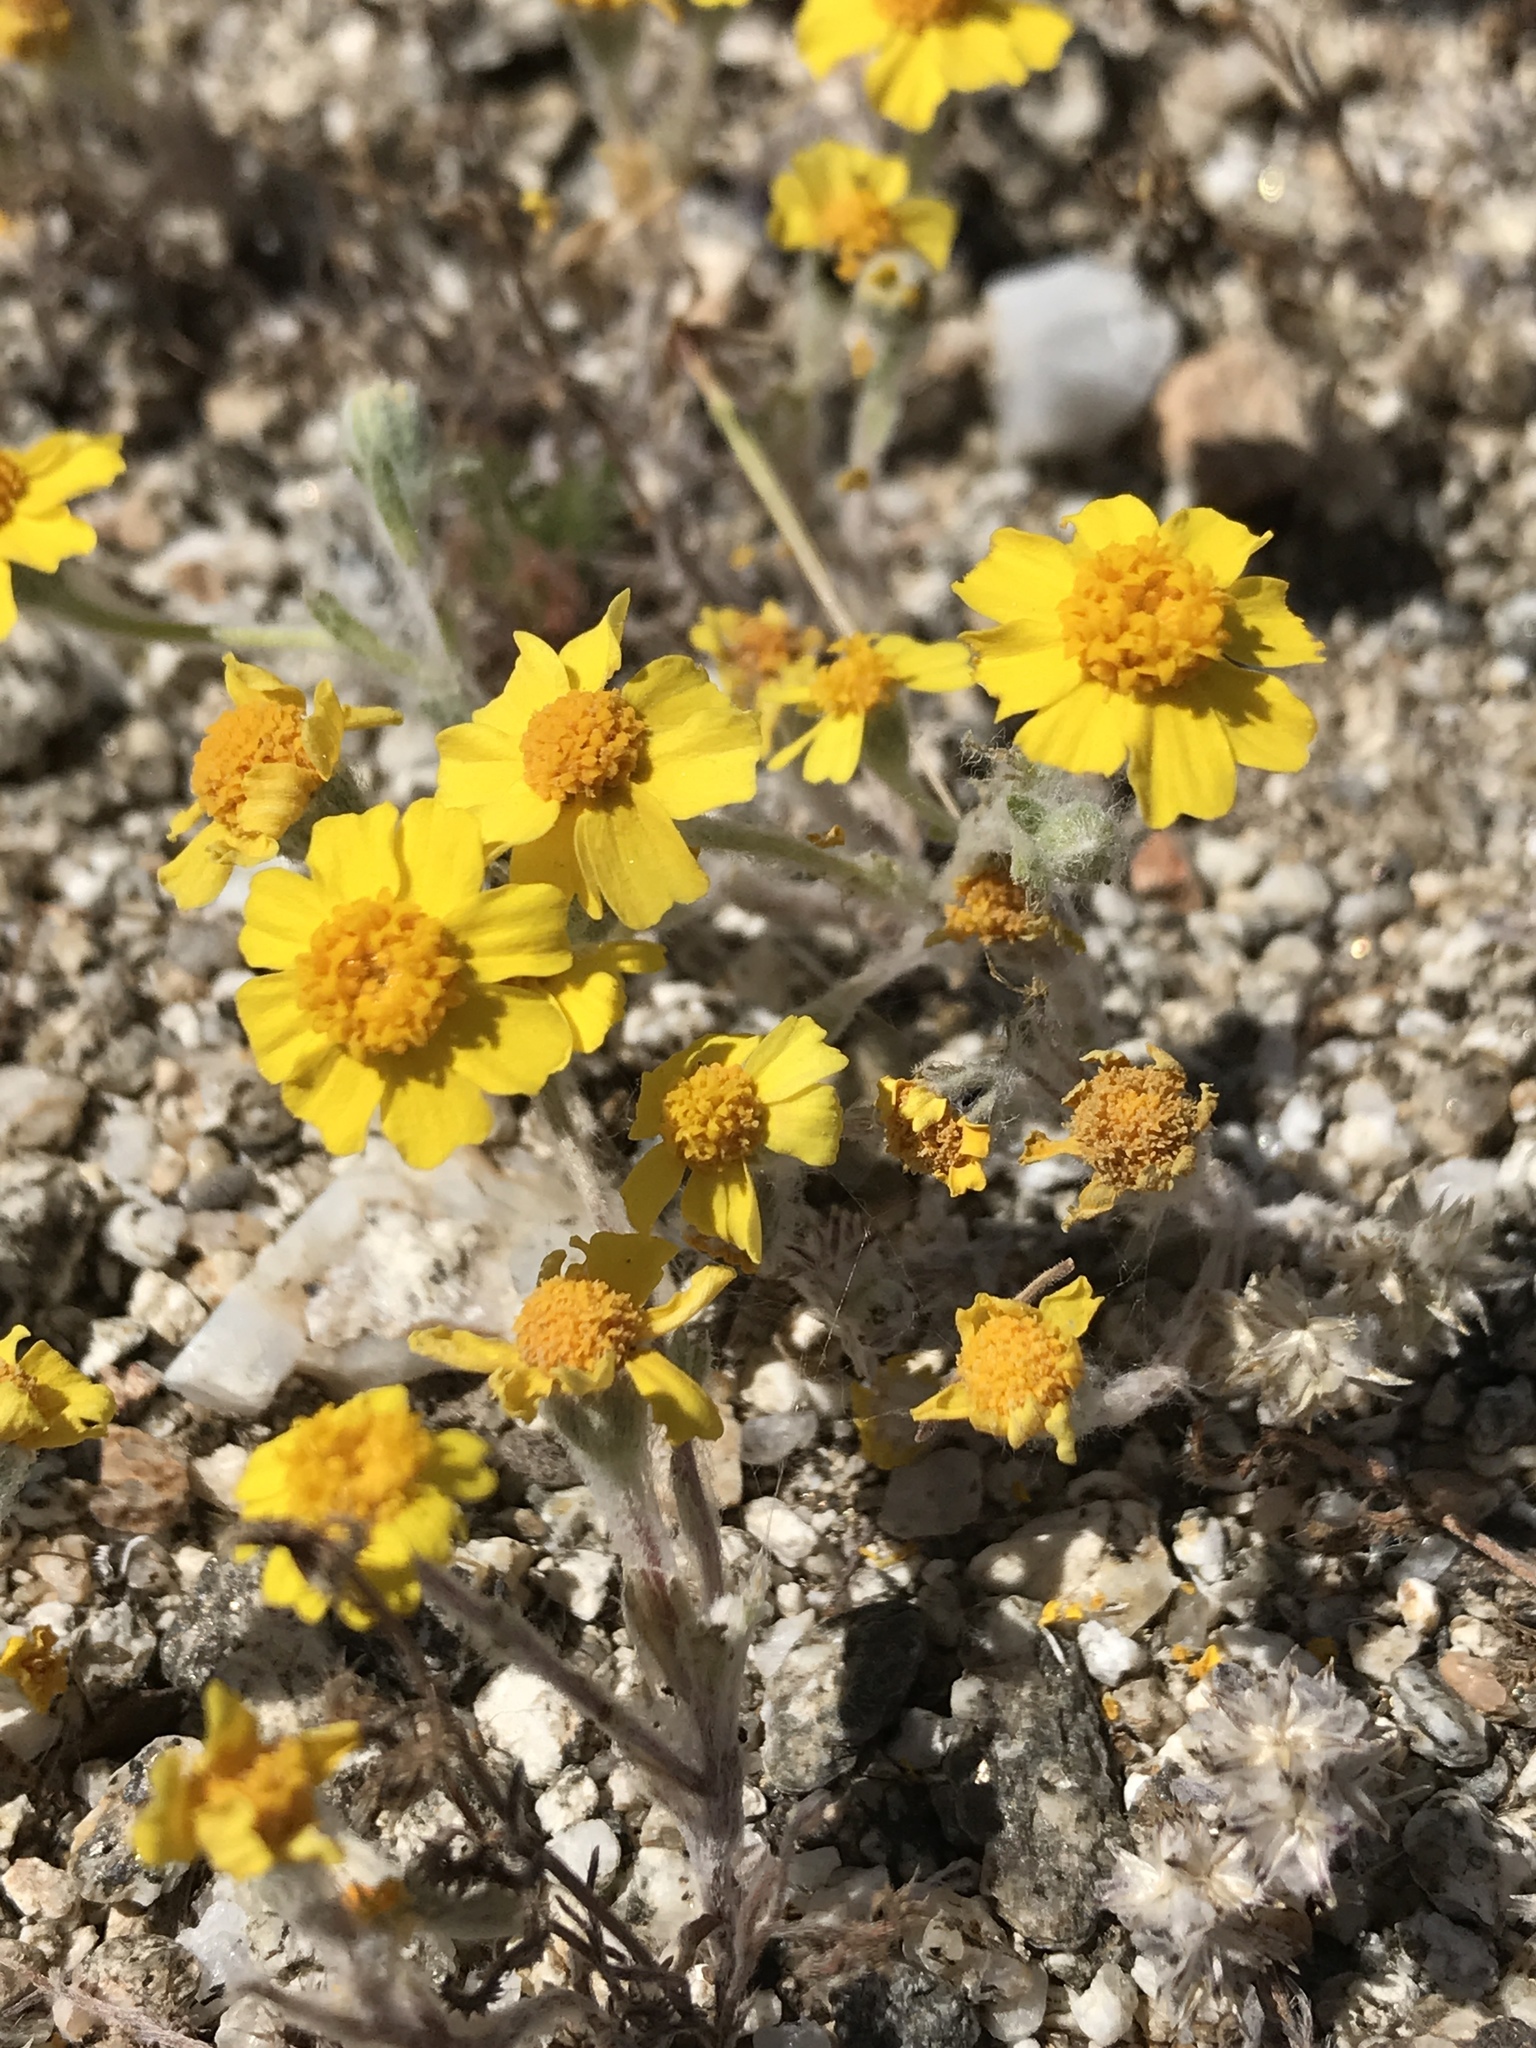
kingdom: Plantae
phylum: Tracheophyta
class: Magnoliopsida
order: Asterales
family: Asteraceae
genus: Eriophyllum
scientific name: Eriophyllum wallacei
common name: Wallace's woolly daisy
